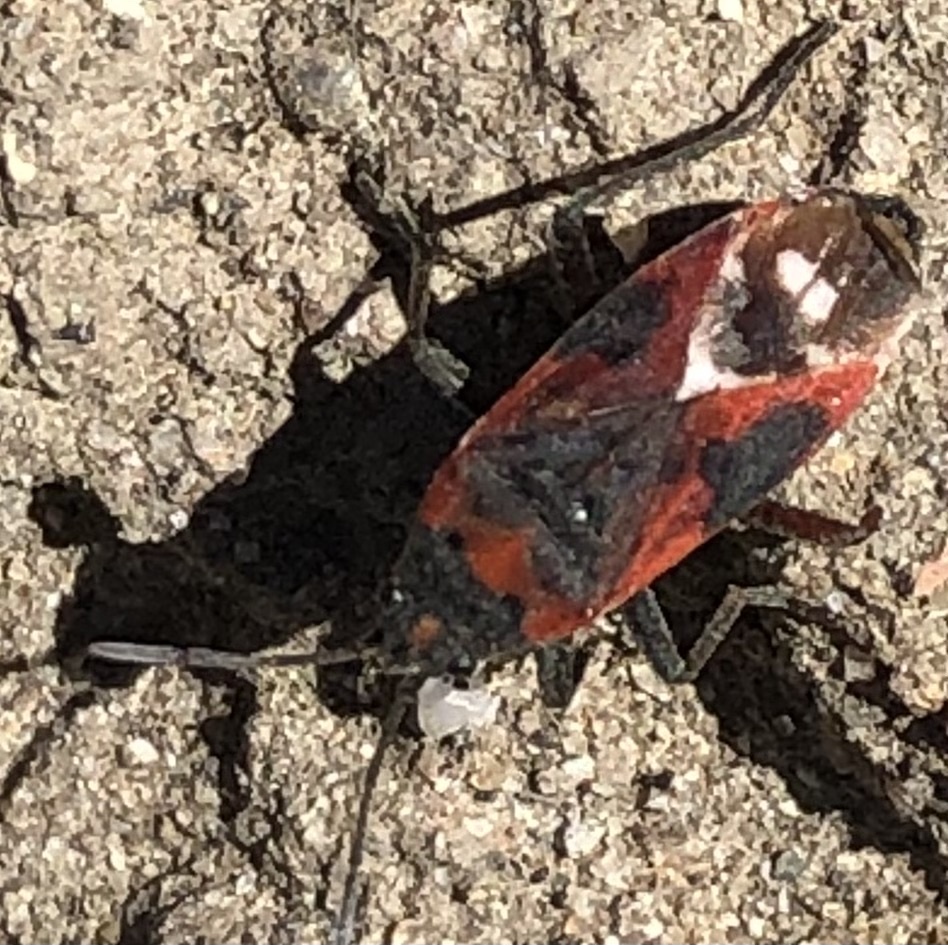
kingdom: Animalia
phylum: Arthropoda
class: Insecta
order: Hemiptera
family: Lygaeidae
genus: Lygaeus
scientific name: Lygaeus kalmii
